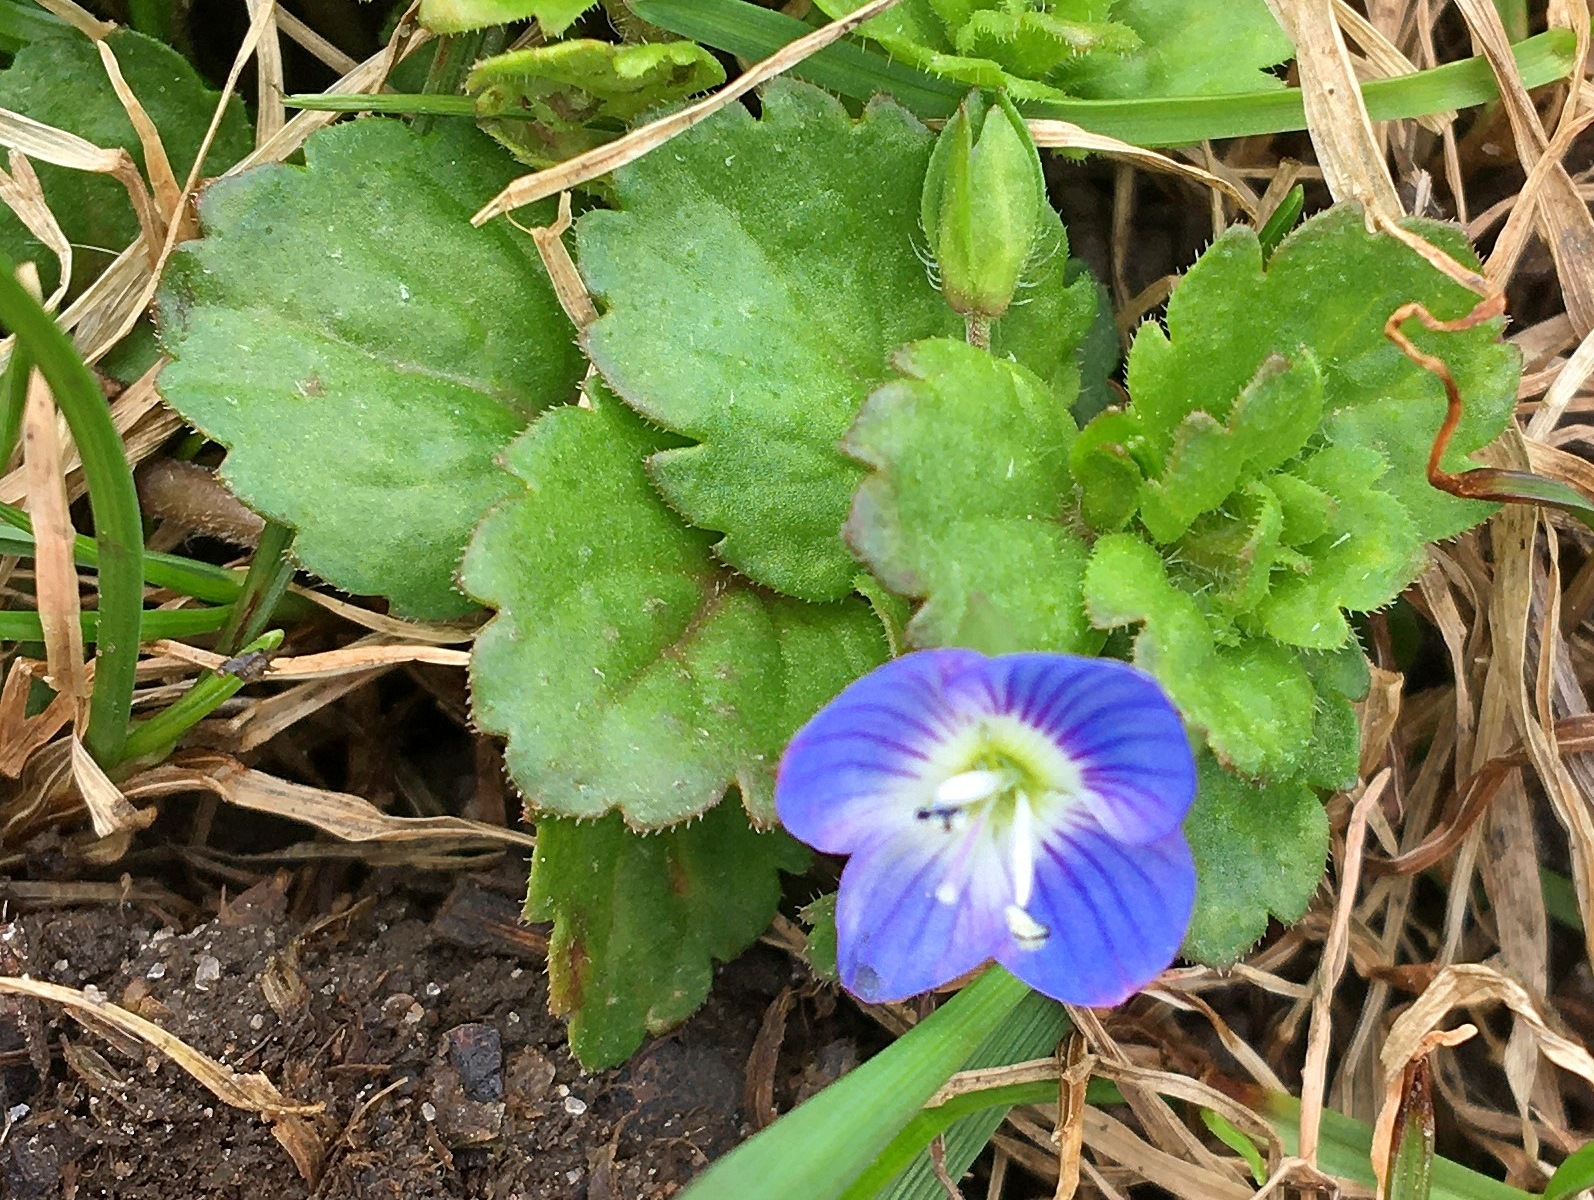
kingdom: Plantae
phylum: Tracheophyta
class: Magnoliopsida
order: Lamiales
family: Plantaginaceae
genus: Veronica
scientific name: Veronica persica
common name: Common field-speedwell
